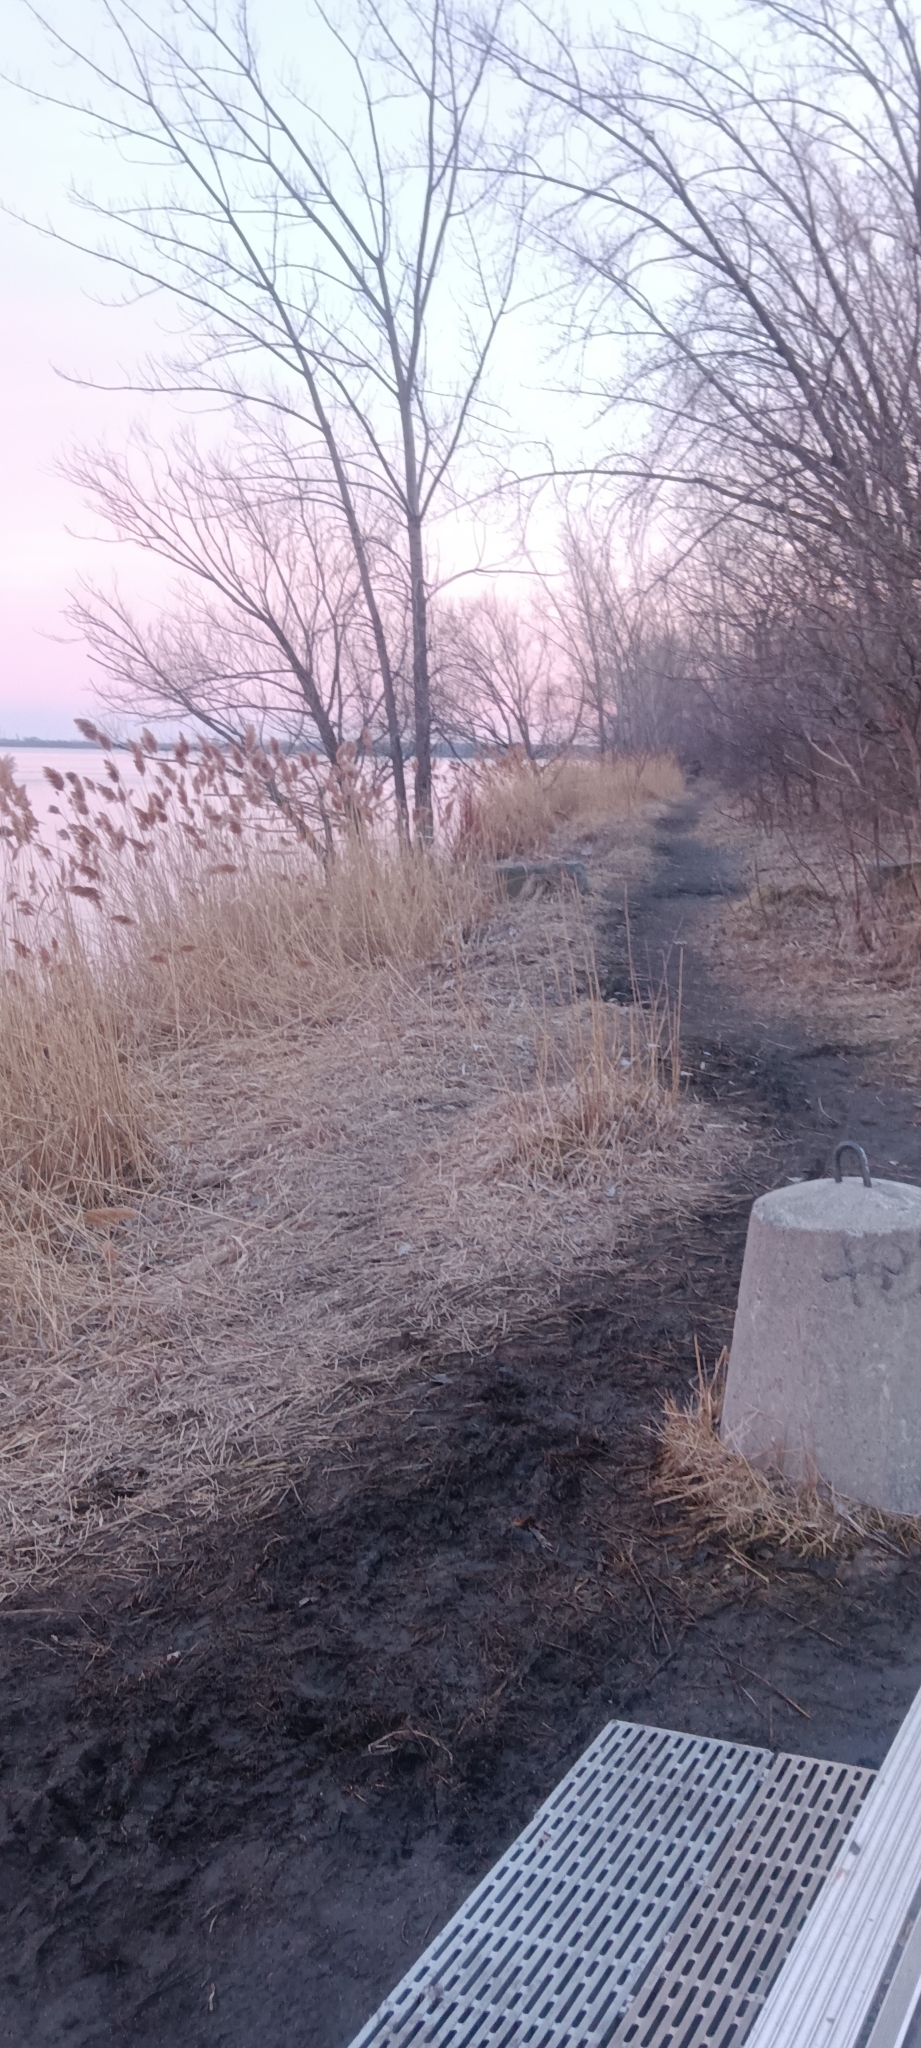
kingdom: Plantae
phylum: Tracheophyta
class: Liliopsida
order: Poales
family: Poaceae
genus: Phragmites
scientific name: Phragmites australis
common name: Common reed
